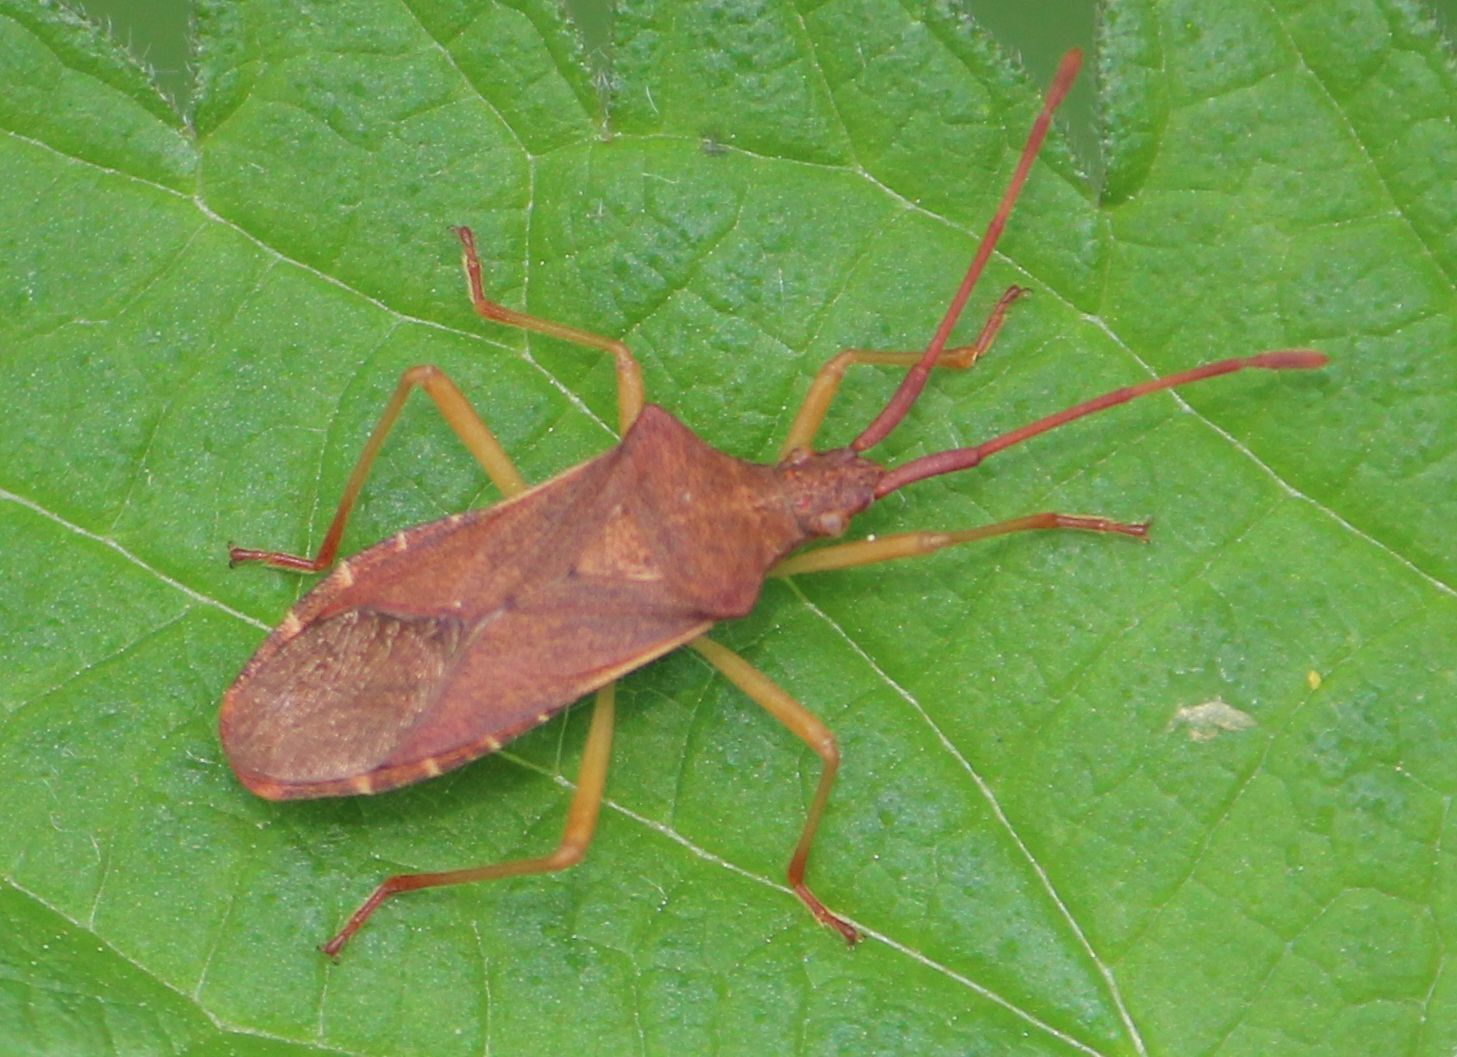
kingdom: Animalia
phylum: Arthropoda
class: Insecta
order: Hemiptera
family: Coreidae
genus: Gonocerus
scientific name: Gonocerus acuteangulatus
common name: Box bug
